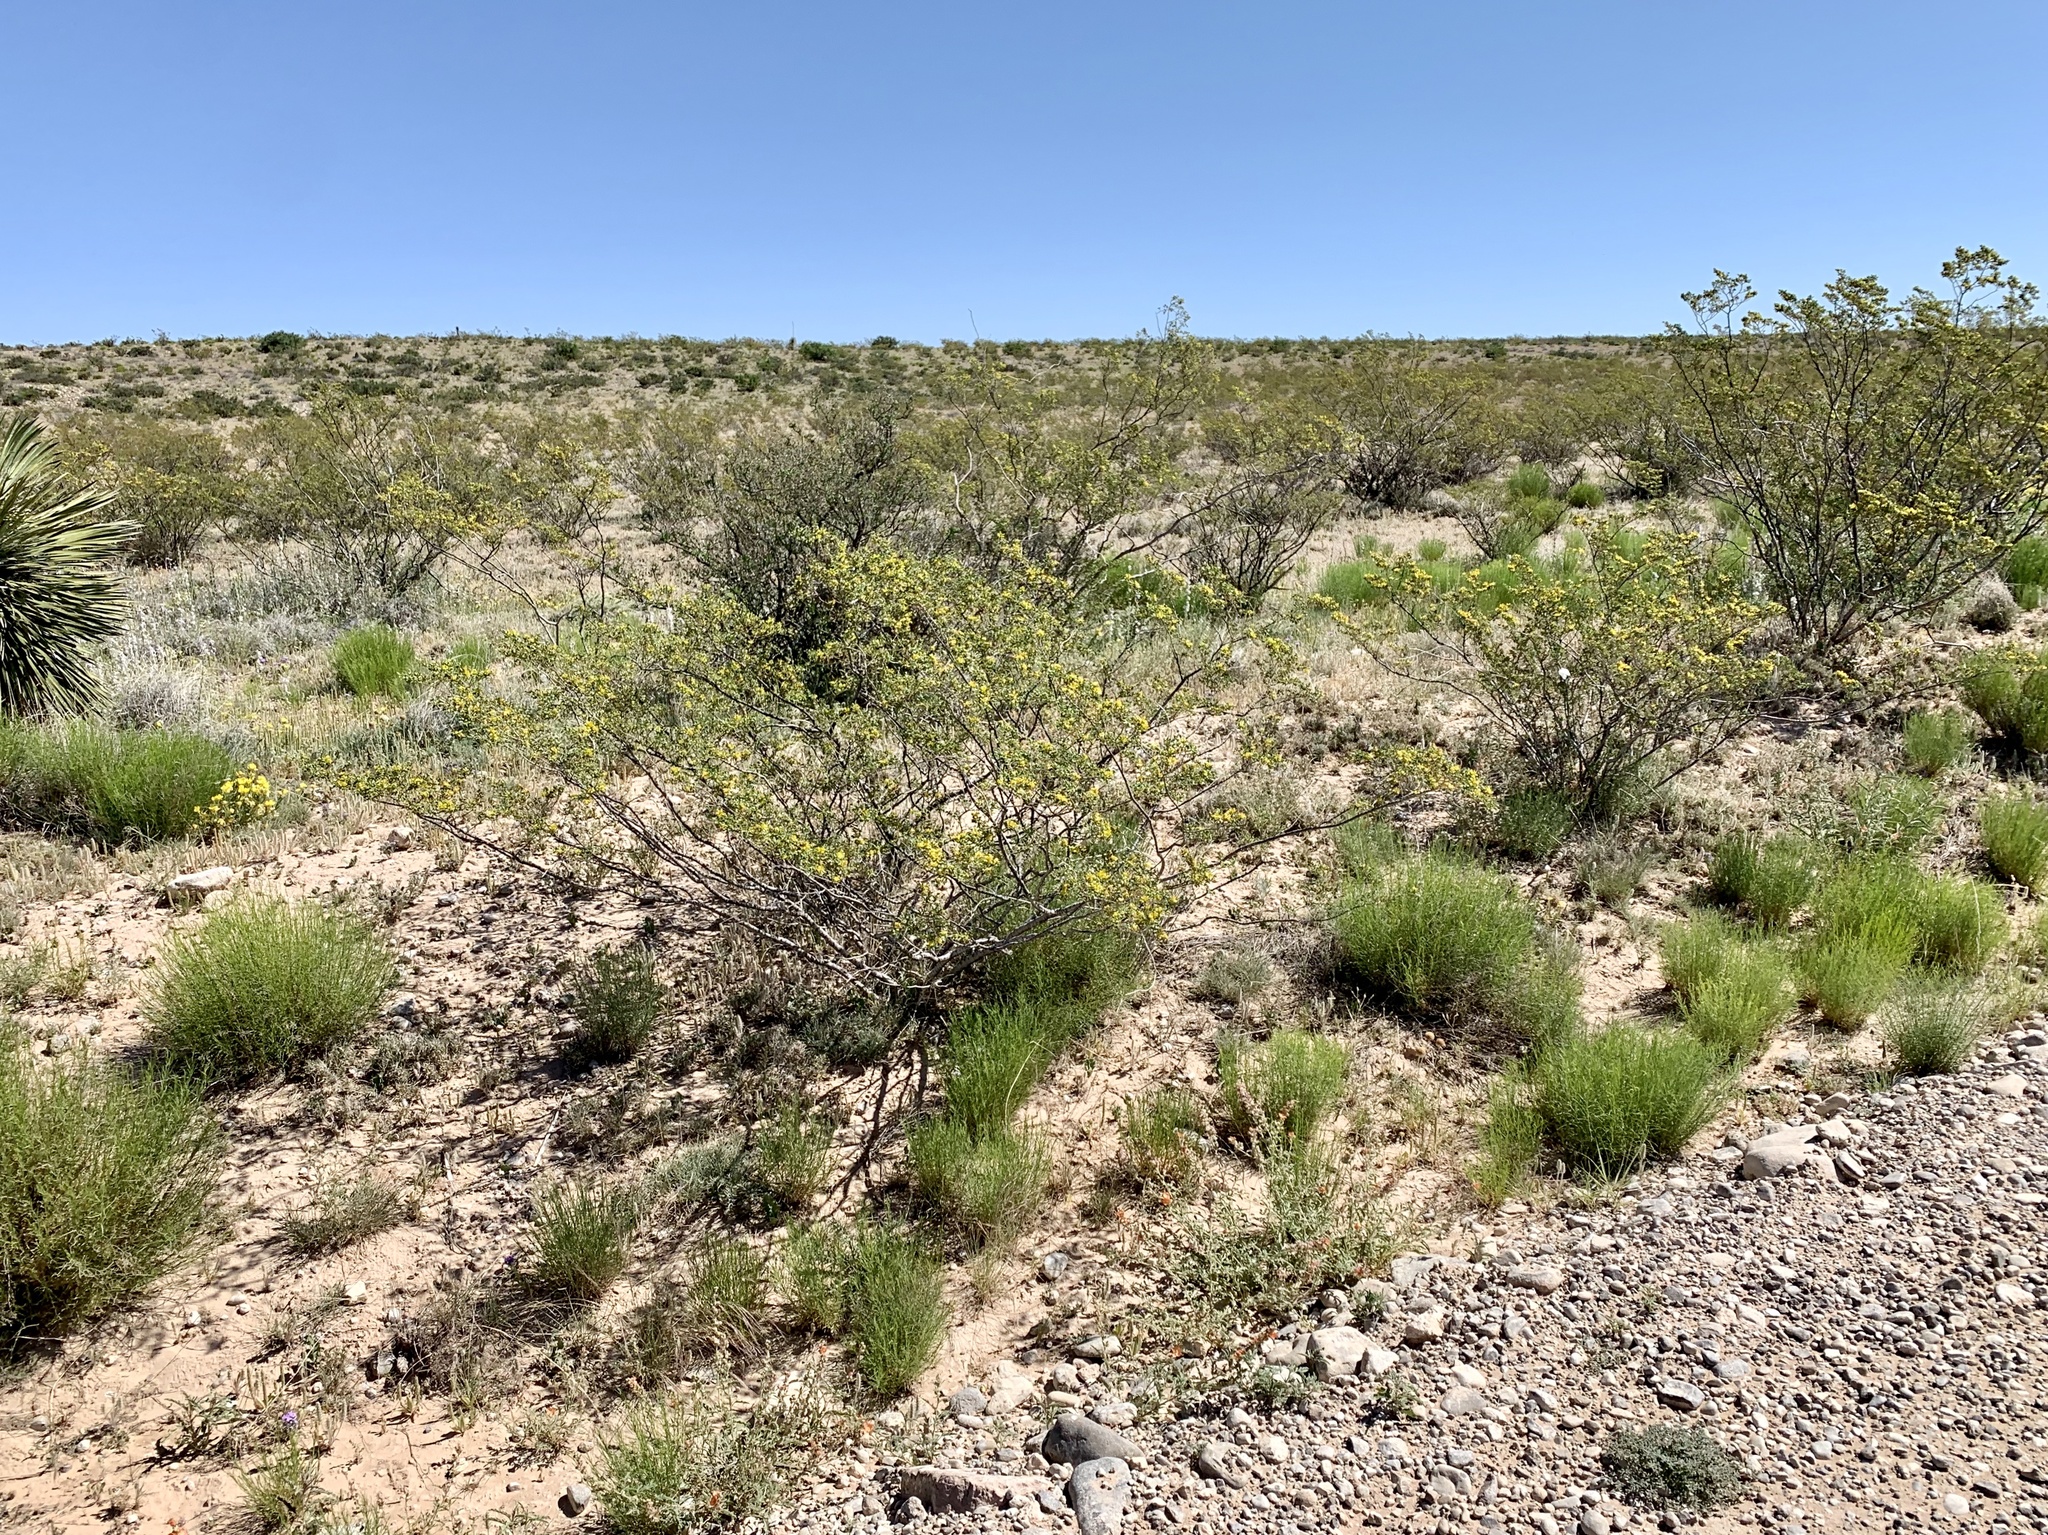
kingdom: Plantae
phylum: Tracheophyta
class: Magnoliopsida
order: Zygophyllales
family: Zygophyllaceae
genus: Larrea
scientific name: Larrea tridentata
